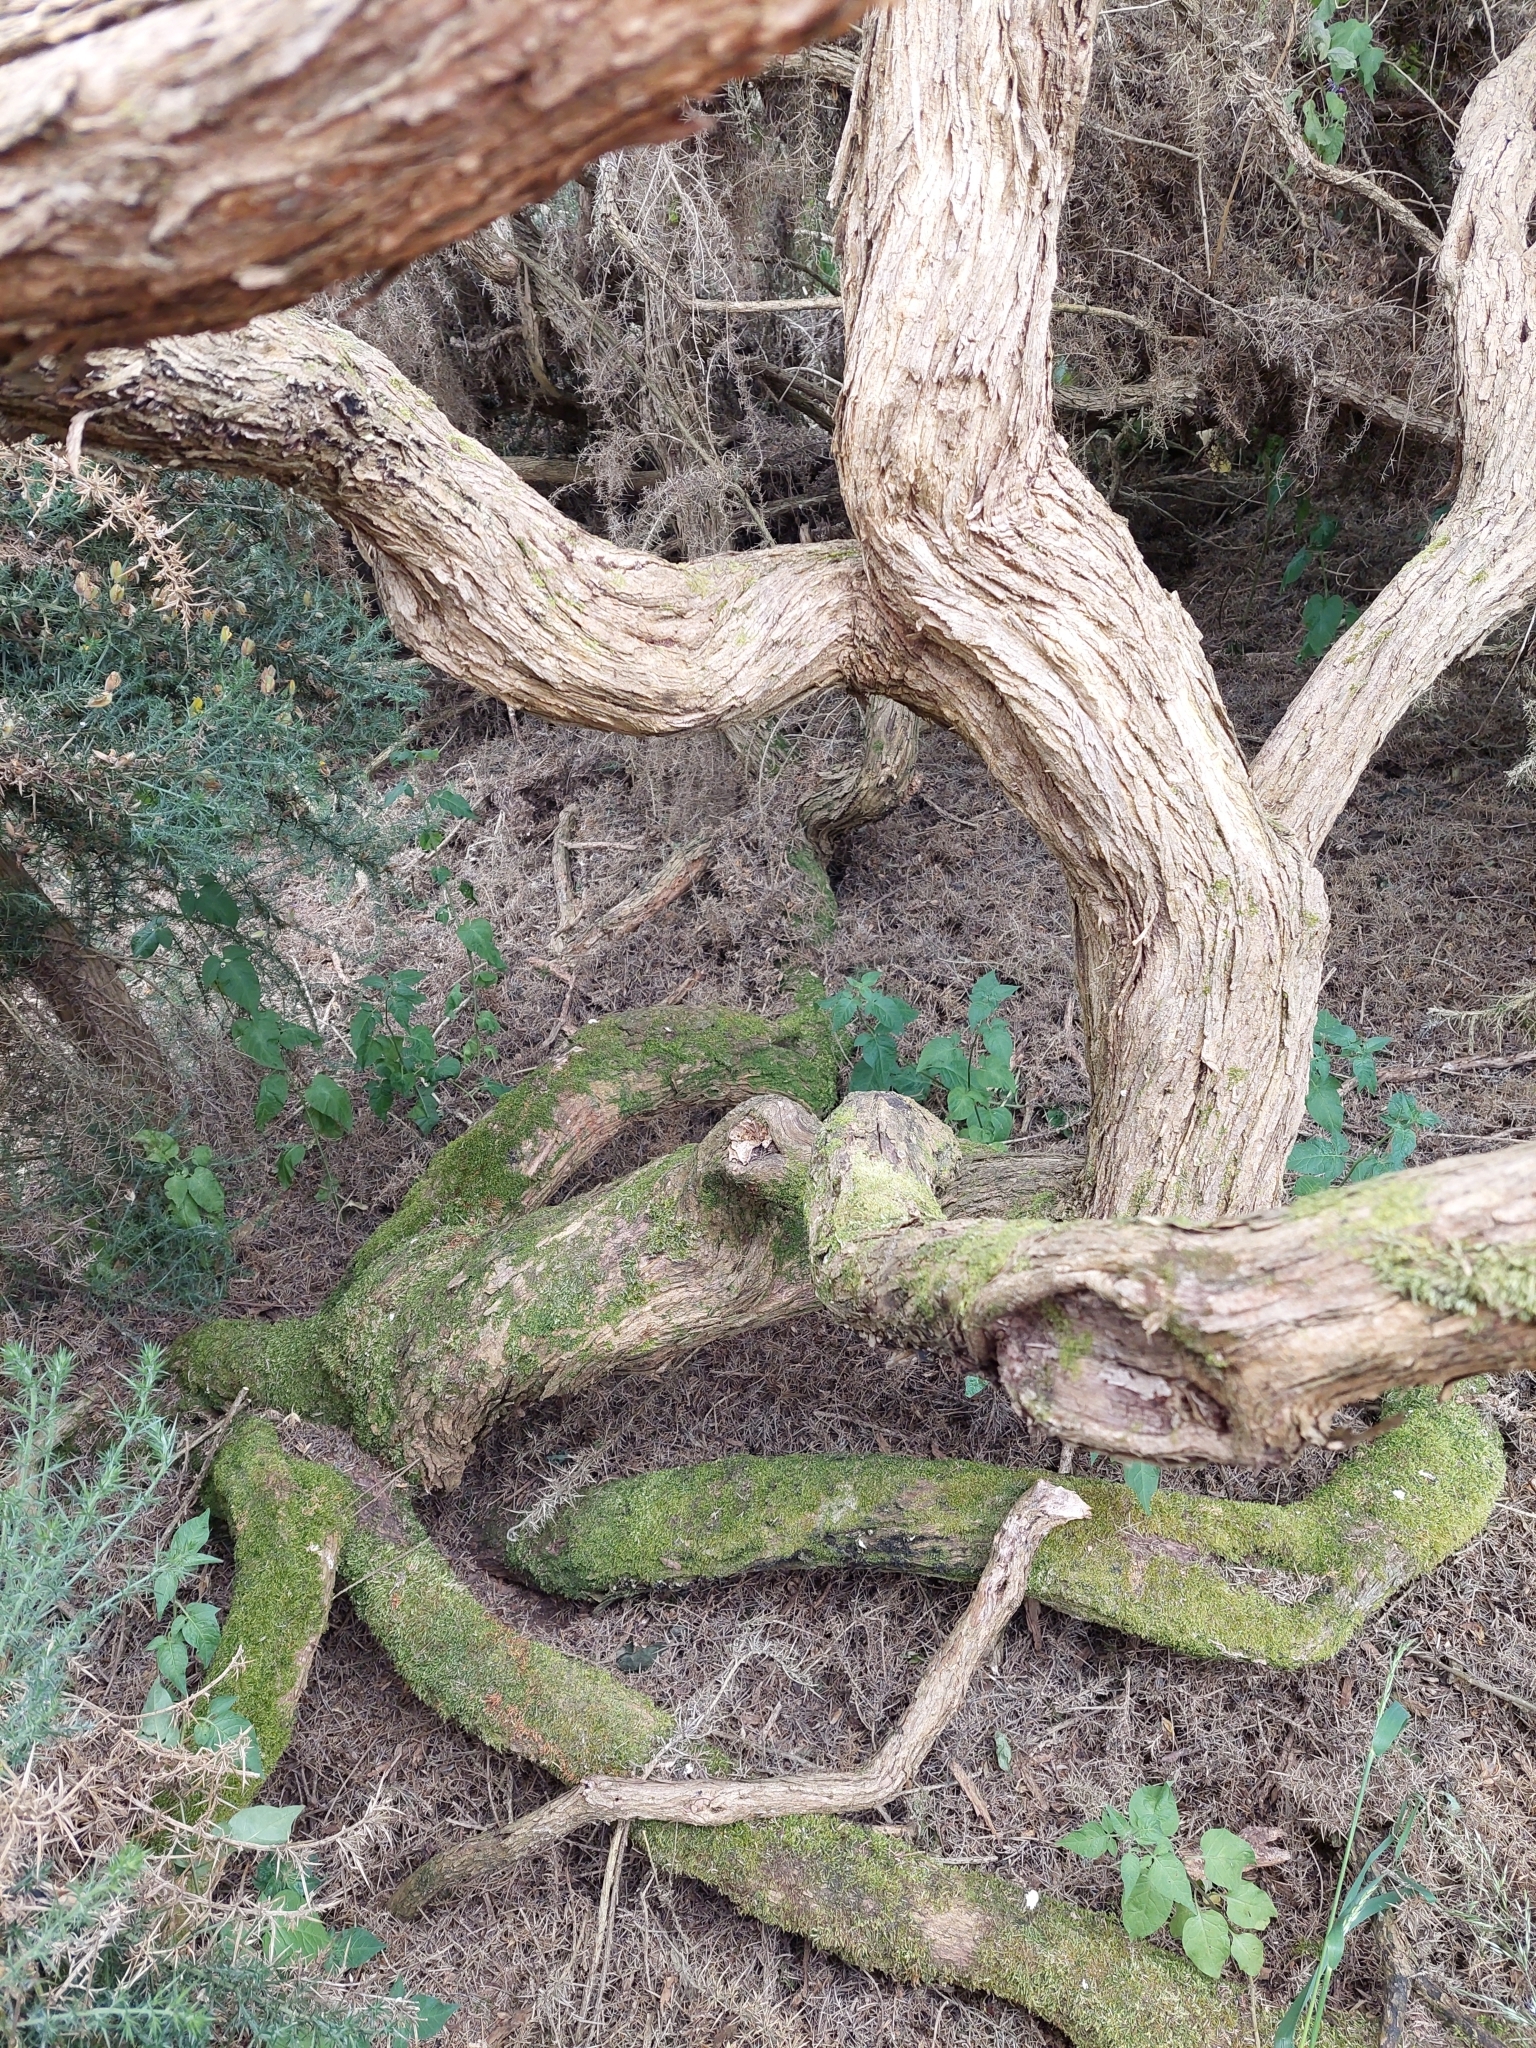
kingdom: Plantae
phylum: Tracheophyta
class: Magnoliopsida
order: Fabales
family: Fabaceae
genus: Ulex
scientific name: Ulex europaeus
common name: Common gorse
